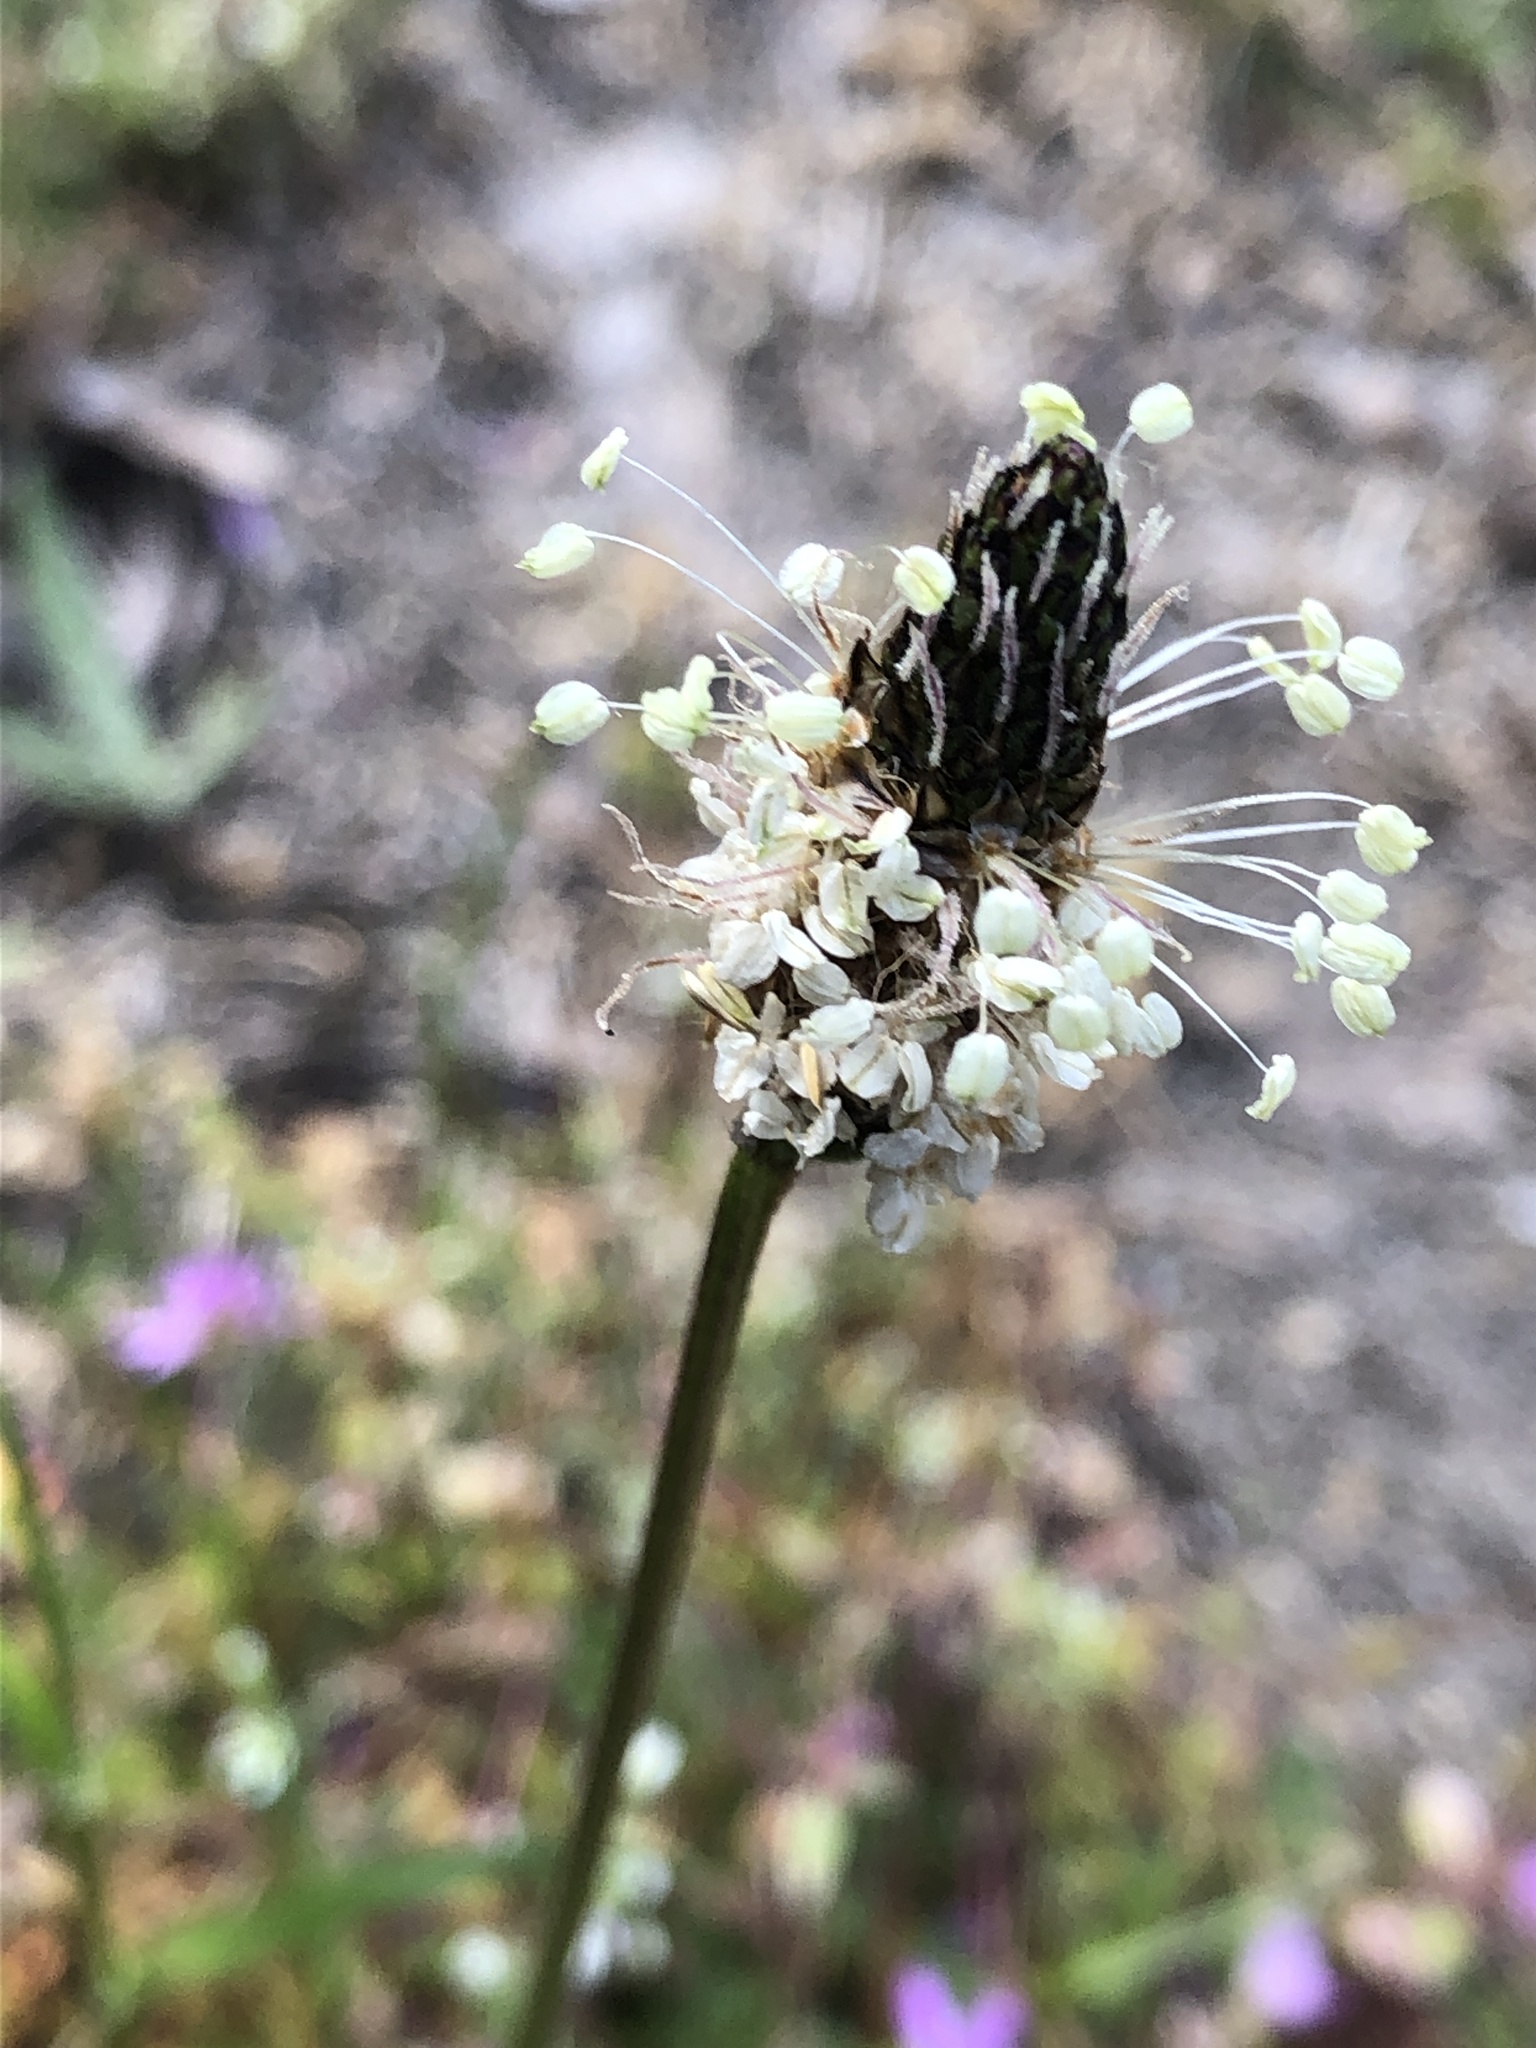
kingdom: Plantae
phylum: Tracheophyta
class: Magnoliopsida
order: Lamiales
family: Plantaginaceae
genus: Plantago
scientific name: Plantago lanceolata
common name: Ribwort plantain
